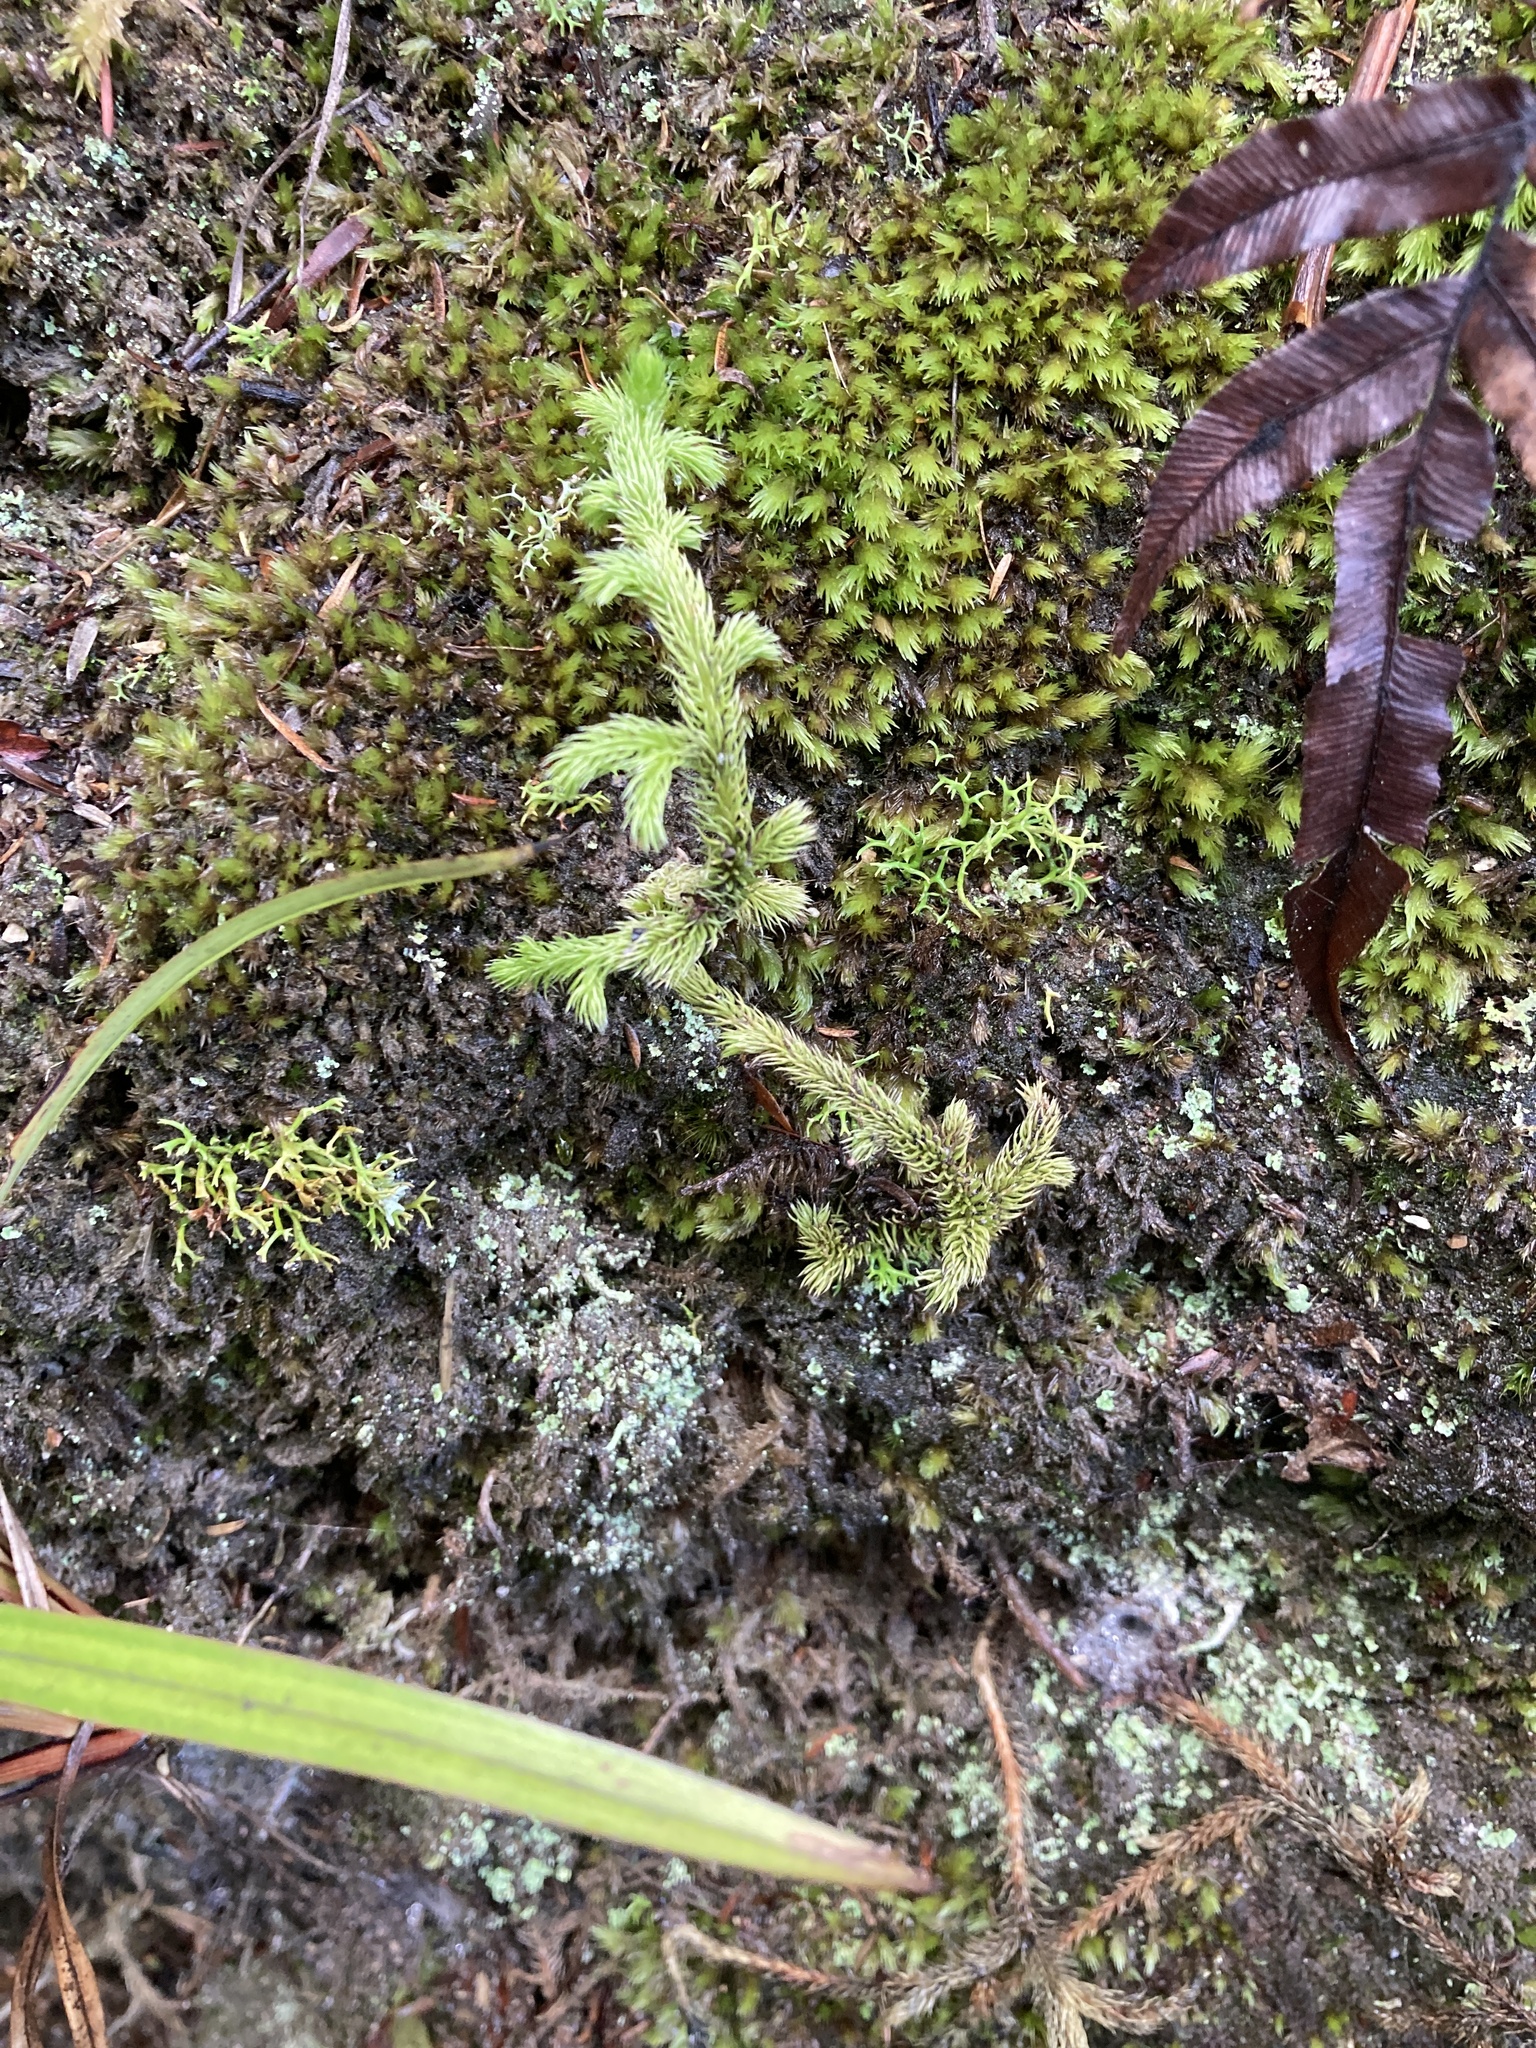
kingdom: Plantae
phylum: Tracheophyta
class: Lycopodiopsida
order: Lycopodiales
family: Lycopodiaceae
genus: Palhinhaea
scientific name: Palhinhaea cernua
